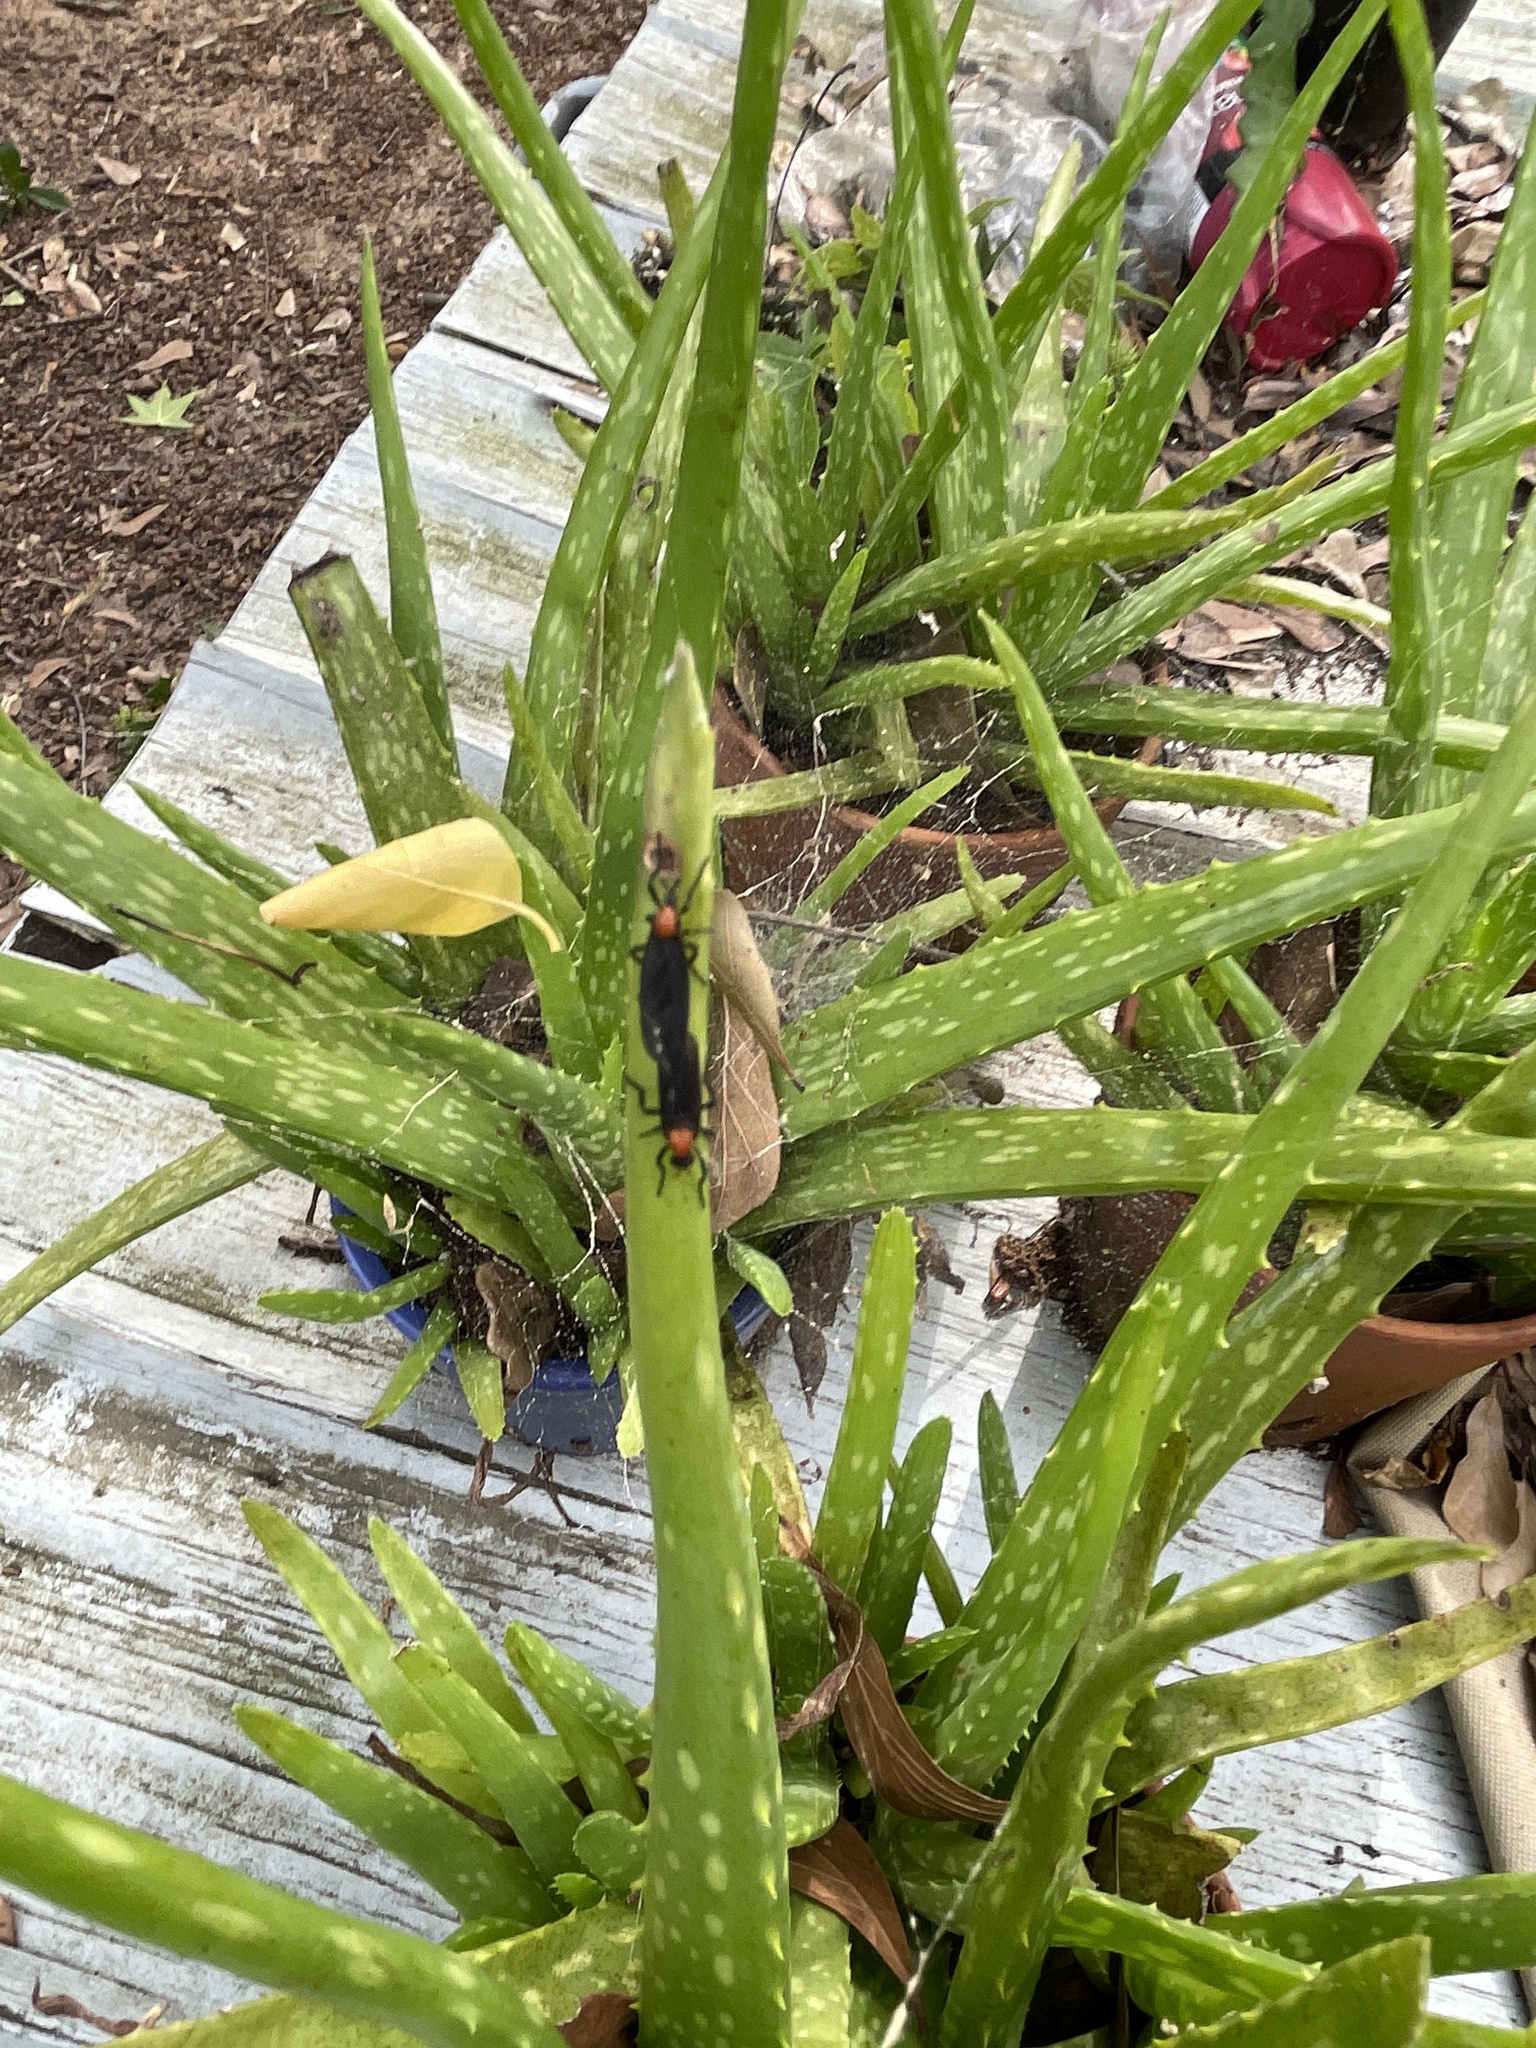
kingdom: Animalia
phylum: Arthropoda
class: Insecta
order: Diptera
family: Bibionidae
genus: Plecia
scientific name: Plecia nearctica
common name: March fly
